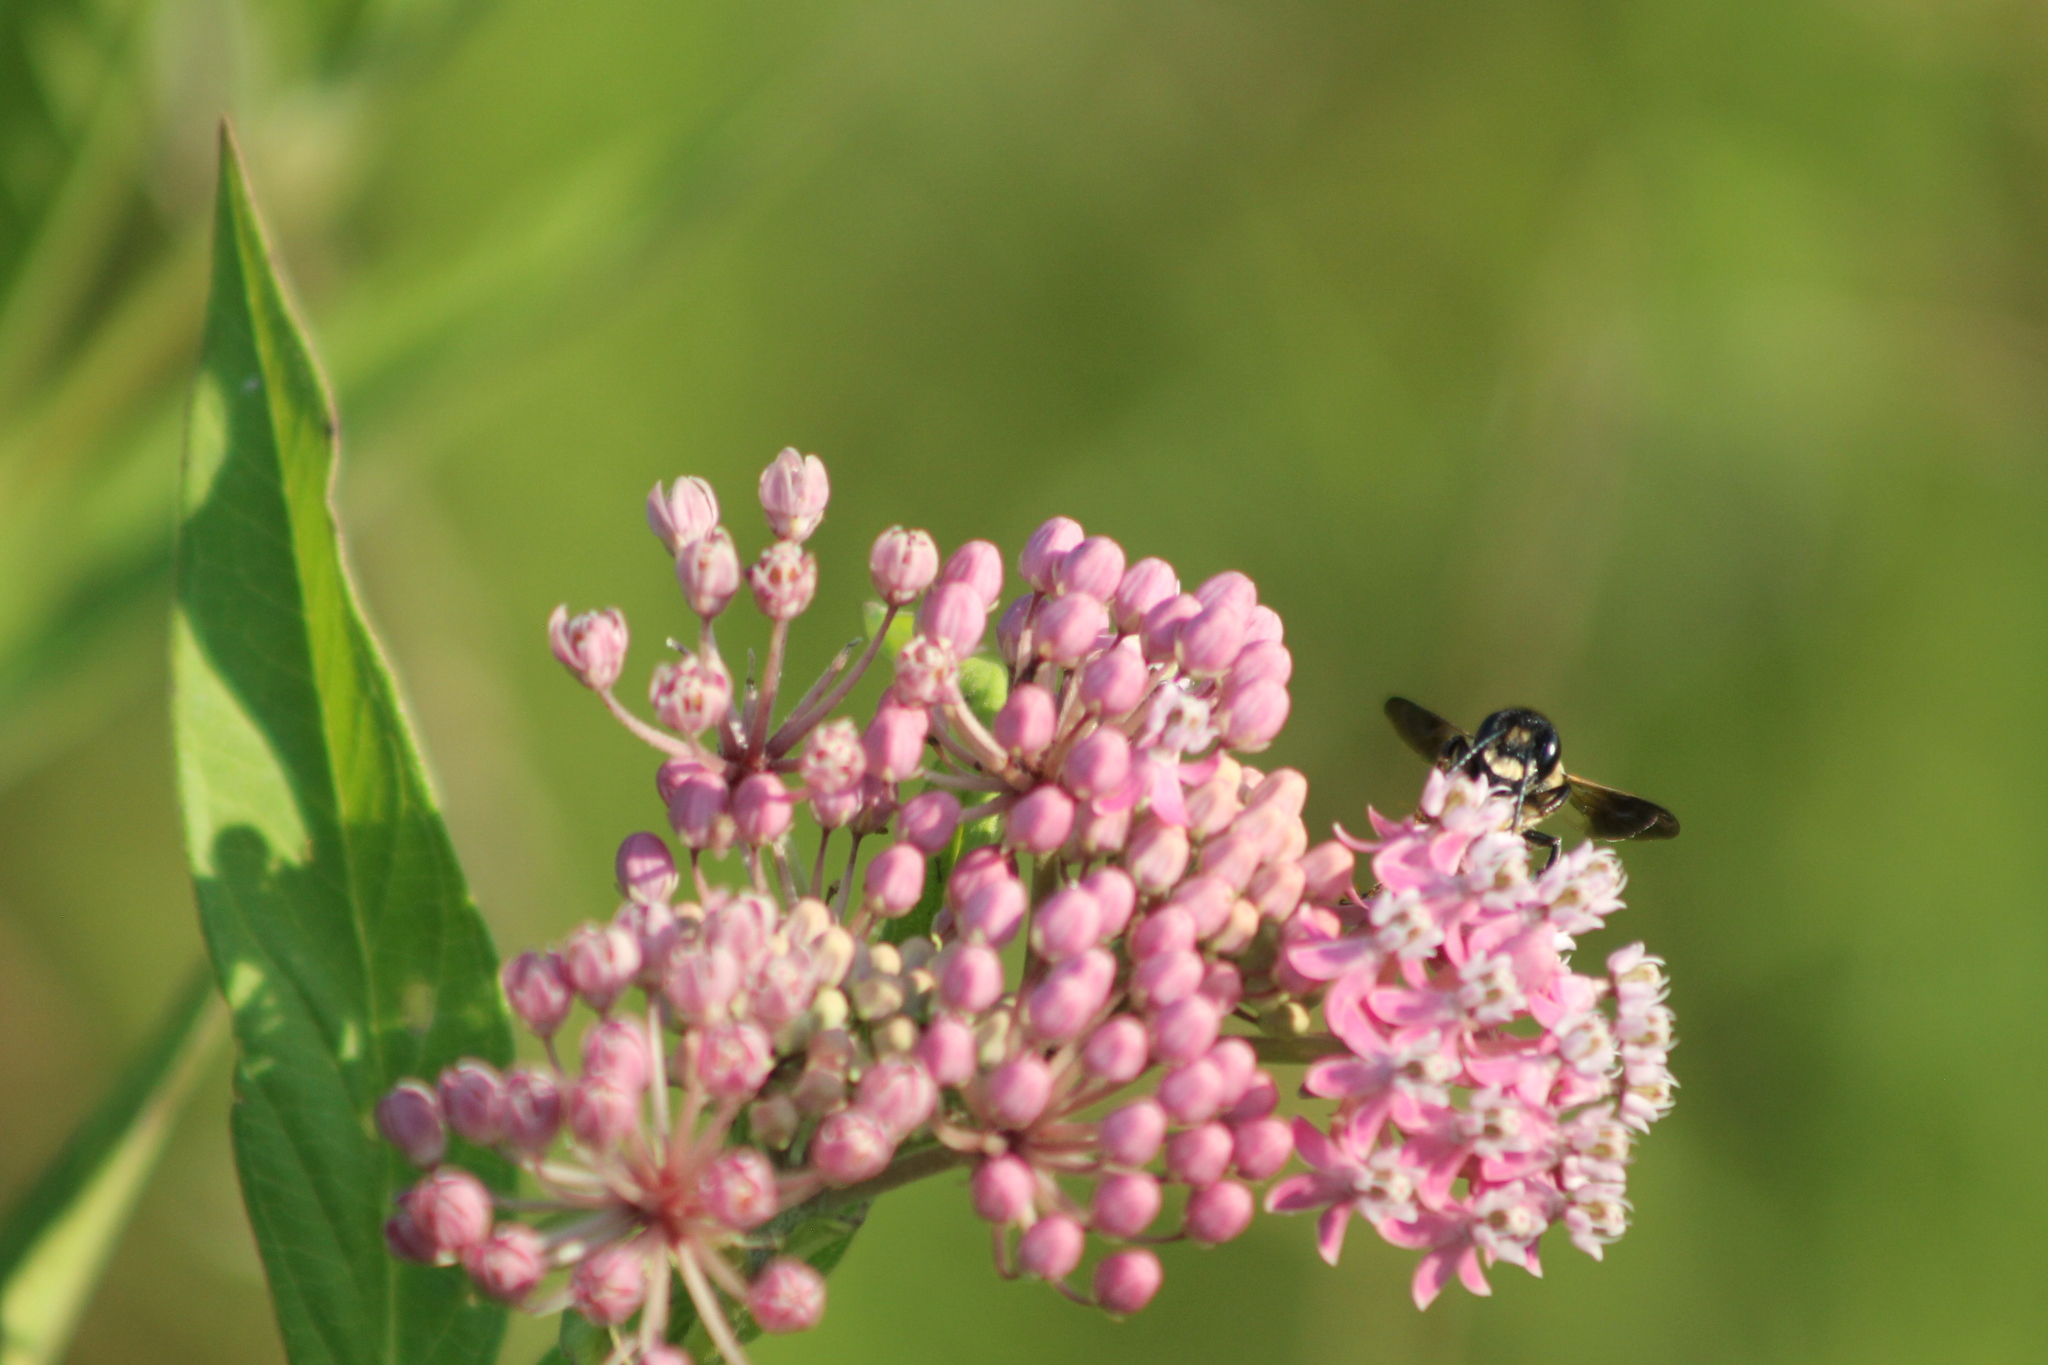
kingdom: Animalia
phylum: Arthropoda
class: Insecta
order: Hymenoptera
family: Megachilidae
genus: Megachile
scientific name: Megachile sculpturalis
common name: Sculptured resin bee
